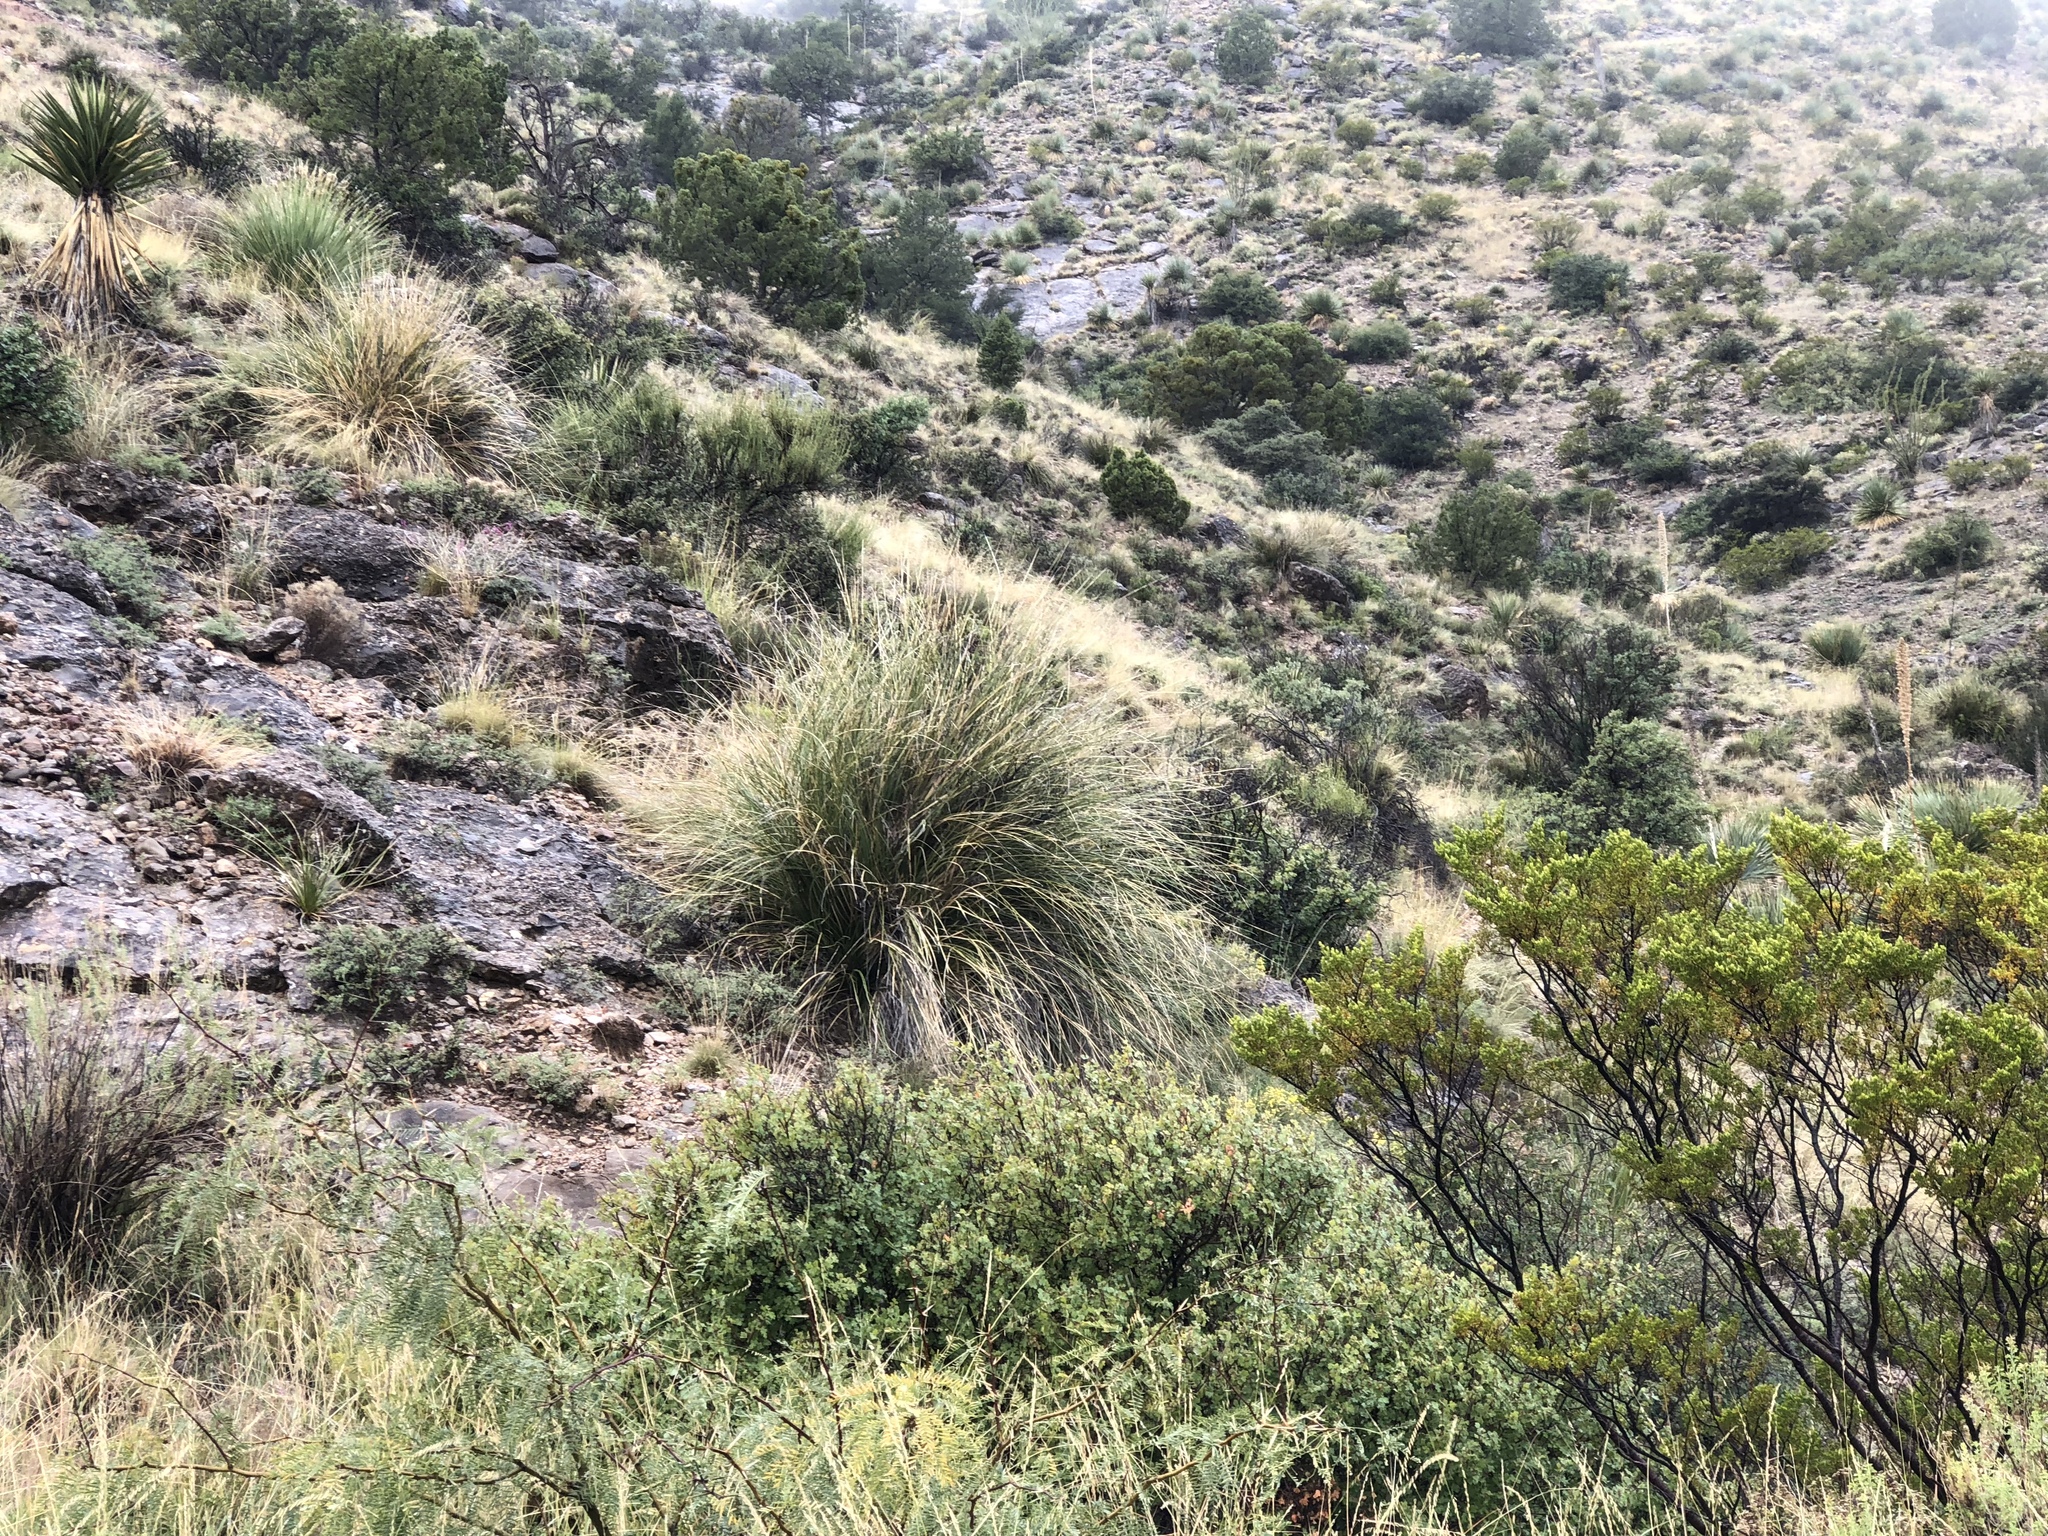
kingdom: Plantae
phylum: Tracheophyta
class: Liliopsida
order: Asparagales
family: Asparagaceae
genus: Nolina
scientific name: Nolina microcarpa
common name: Bear-grass
